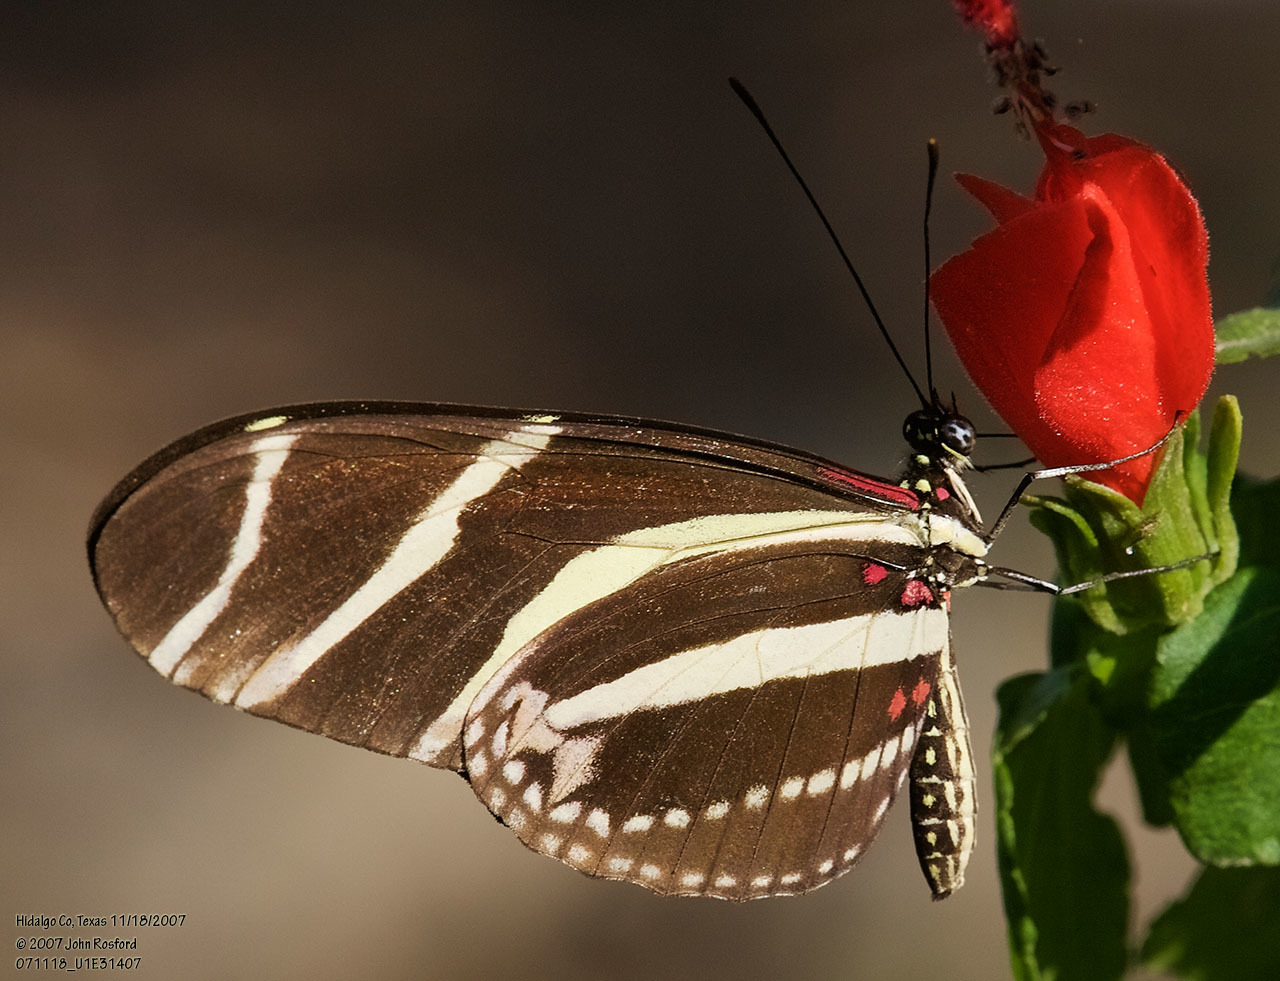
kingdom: Animalia
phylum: Arthropoda
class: Insecta
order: Lepidoptera
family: Nymphalidae
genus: Heliconius
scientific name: Heliconius charithonia
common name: Zebra long wing
